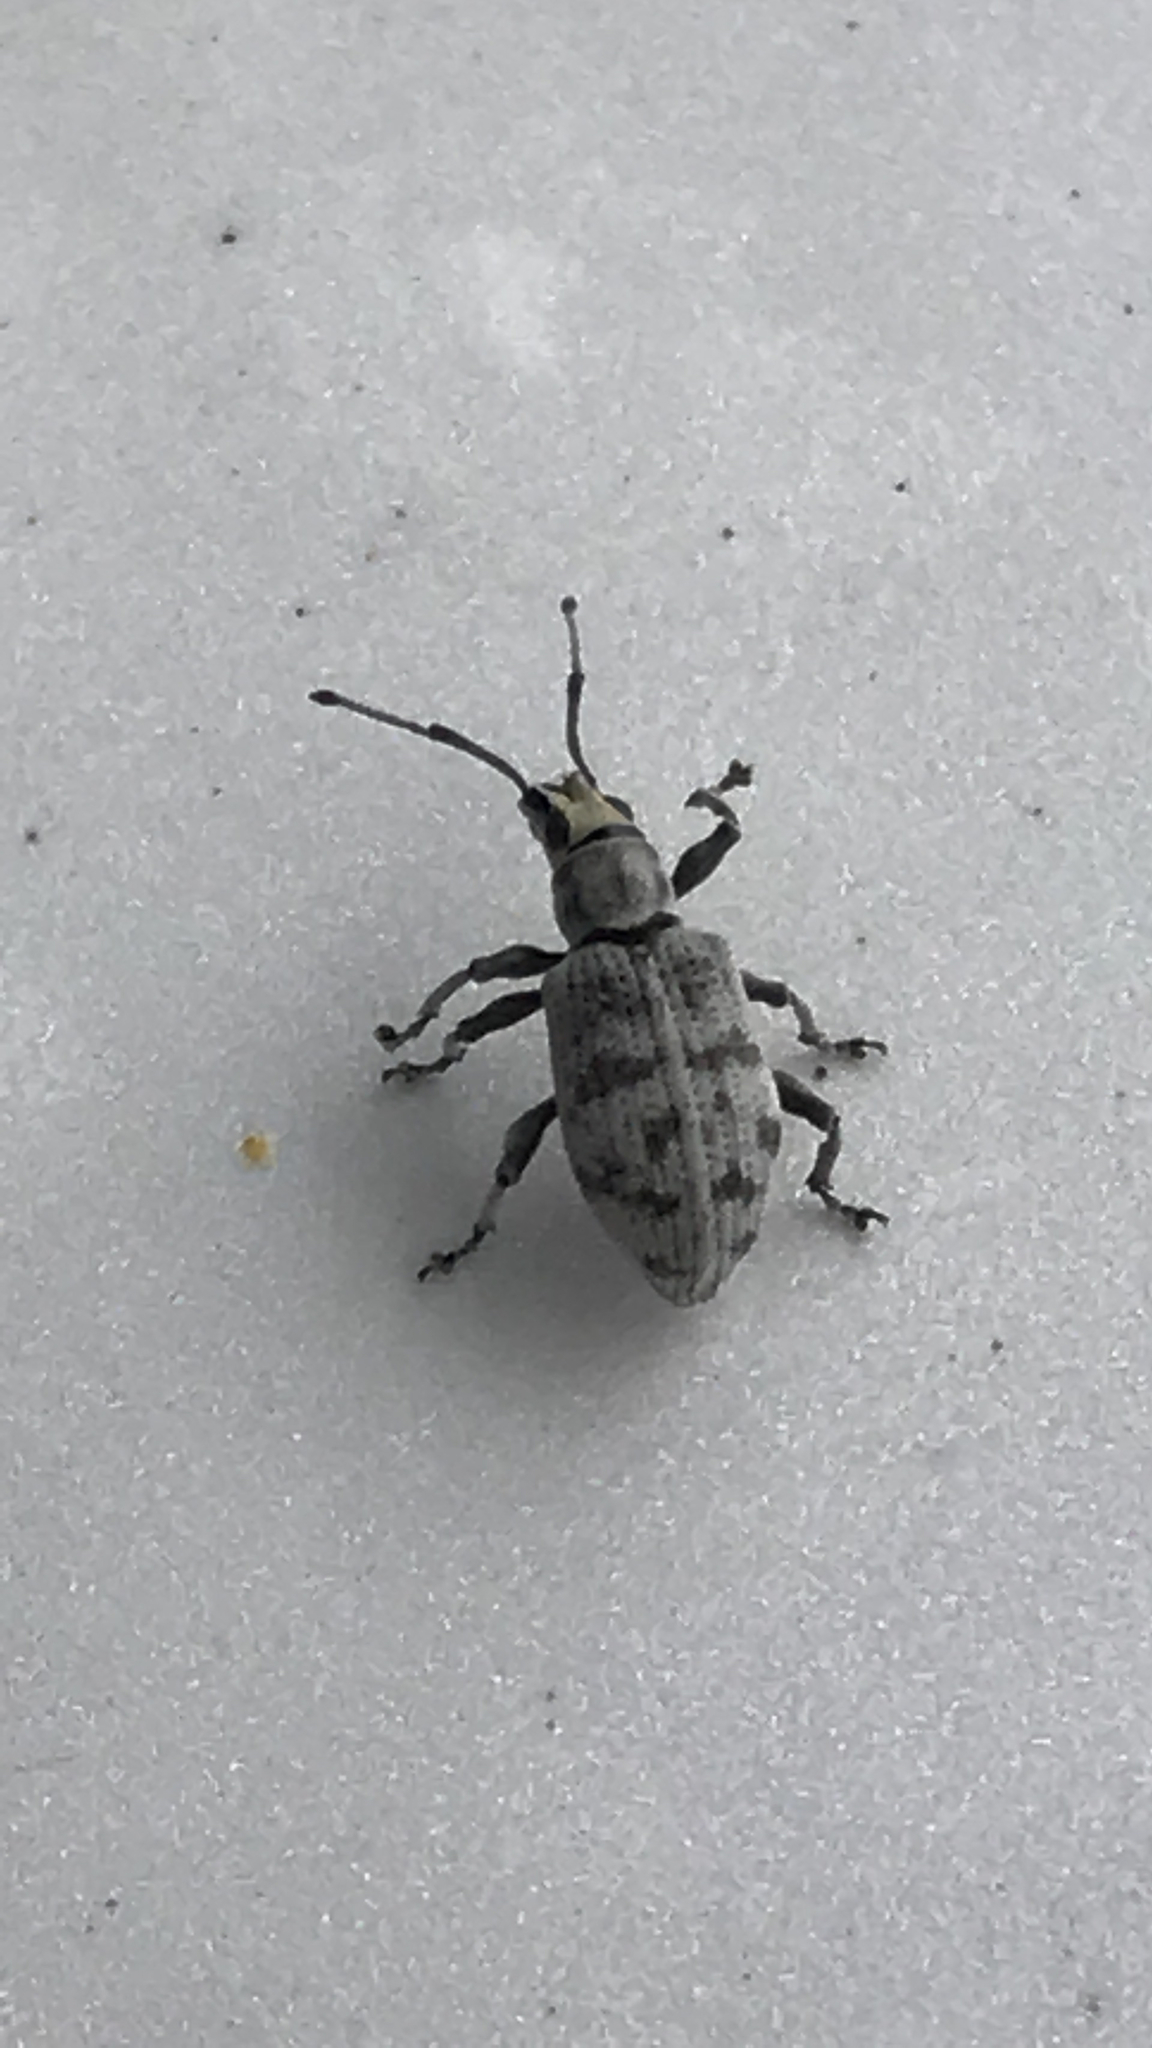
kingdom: Animalia
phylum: Arthropoda
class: Insecta
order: Coleoptera
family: Curculionidae
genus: Myllocerus
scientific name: Myllocerus undecimpustulatus
